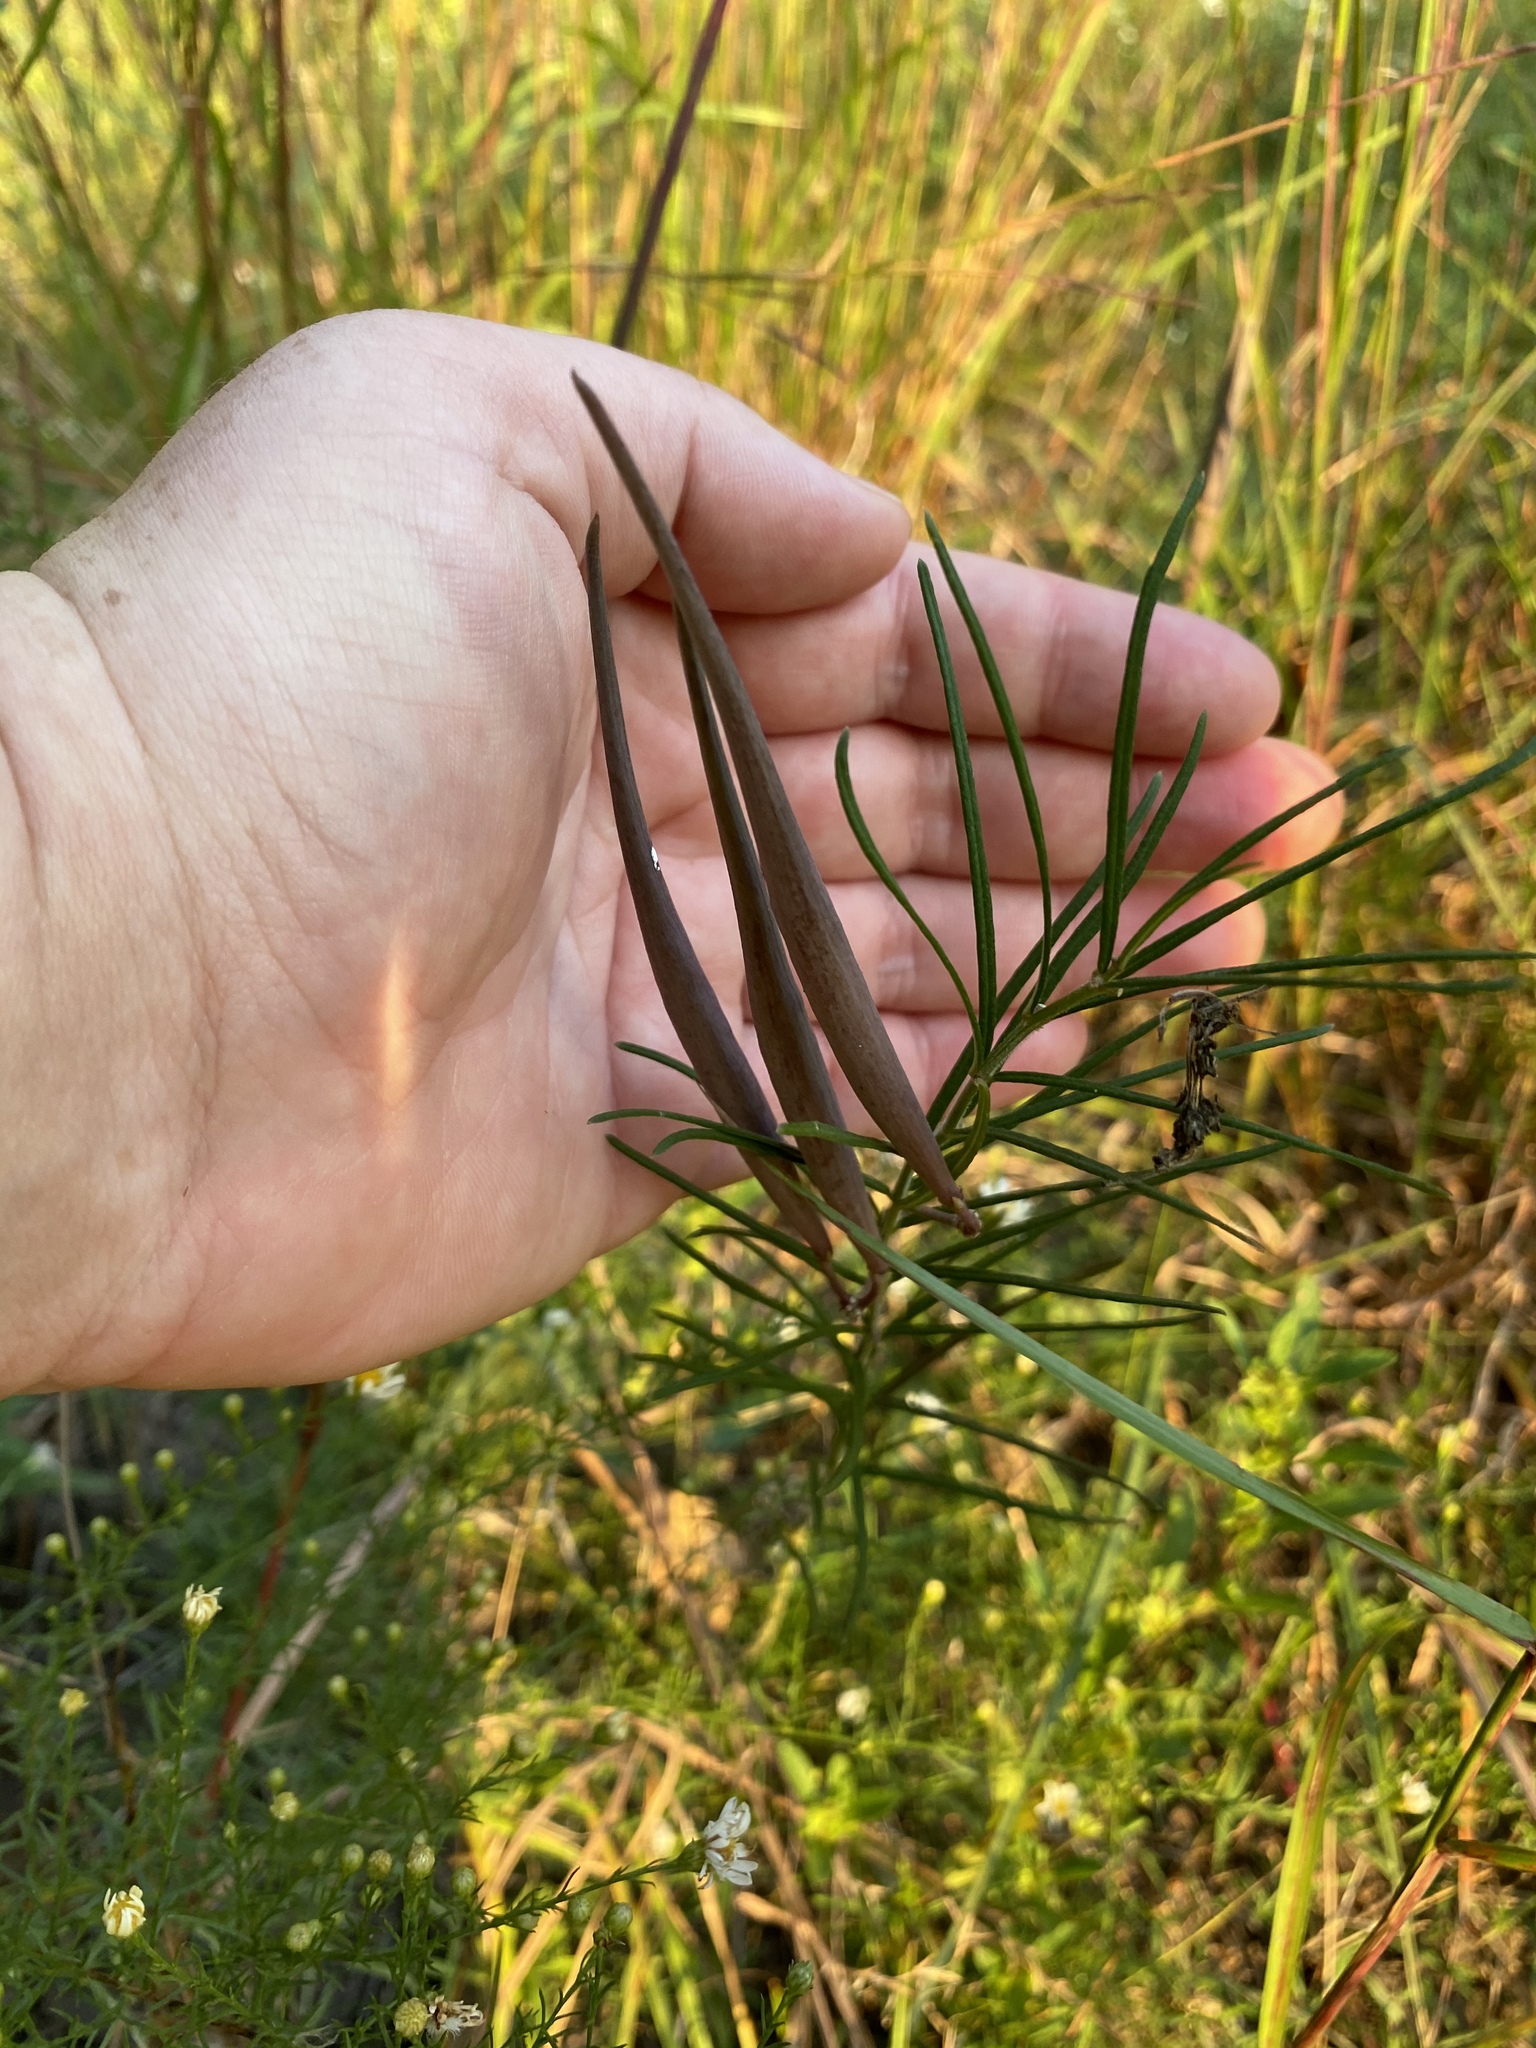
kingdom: Plantae
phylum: Tracheophyta
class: Magnoliopsida
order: Gentianales
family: Apocynaceae
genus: Asclepias
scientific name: Asclepias verticillata
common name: Eastern whorled milkweed
